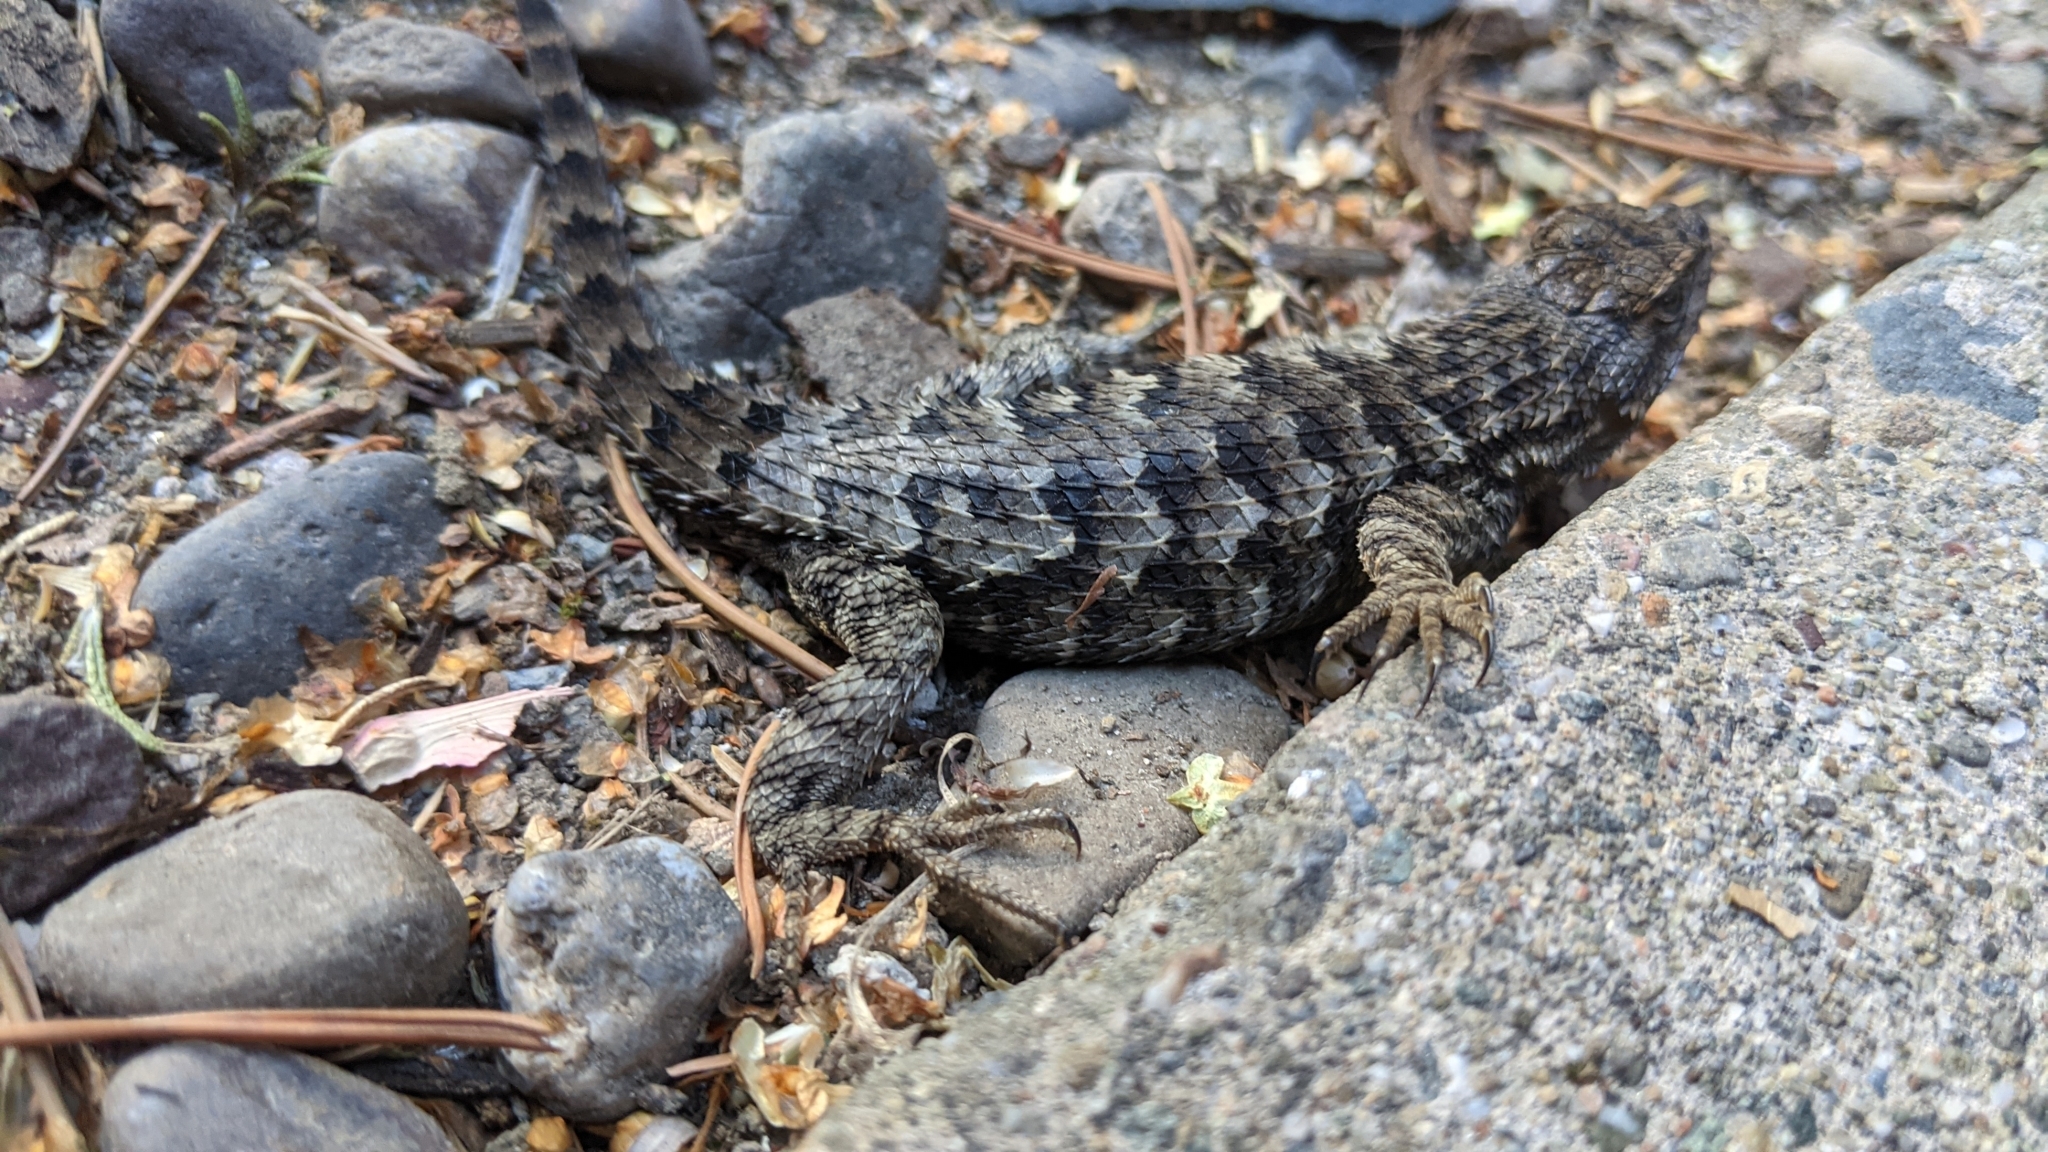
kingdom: Animalia
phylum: Chordata
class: Squamata
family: Phrynosomatidae
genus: Sceloporus
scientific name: Sceloporus occidentalis
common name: Western fence lizard
